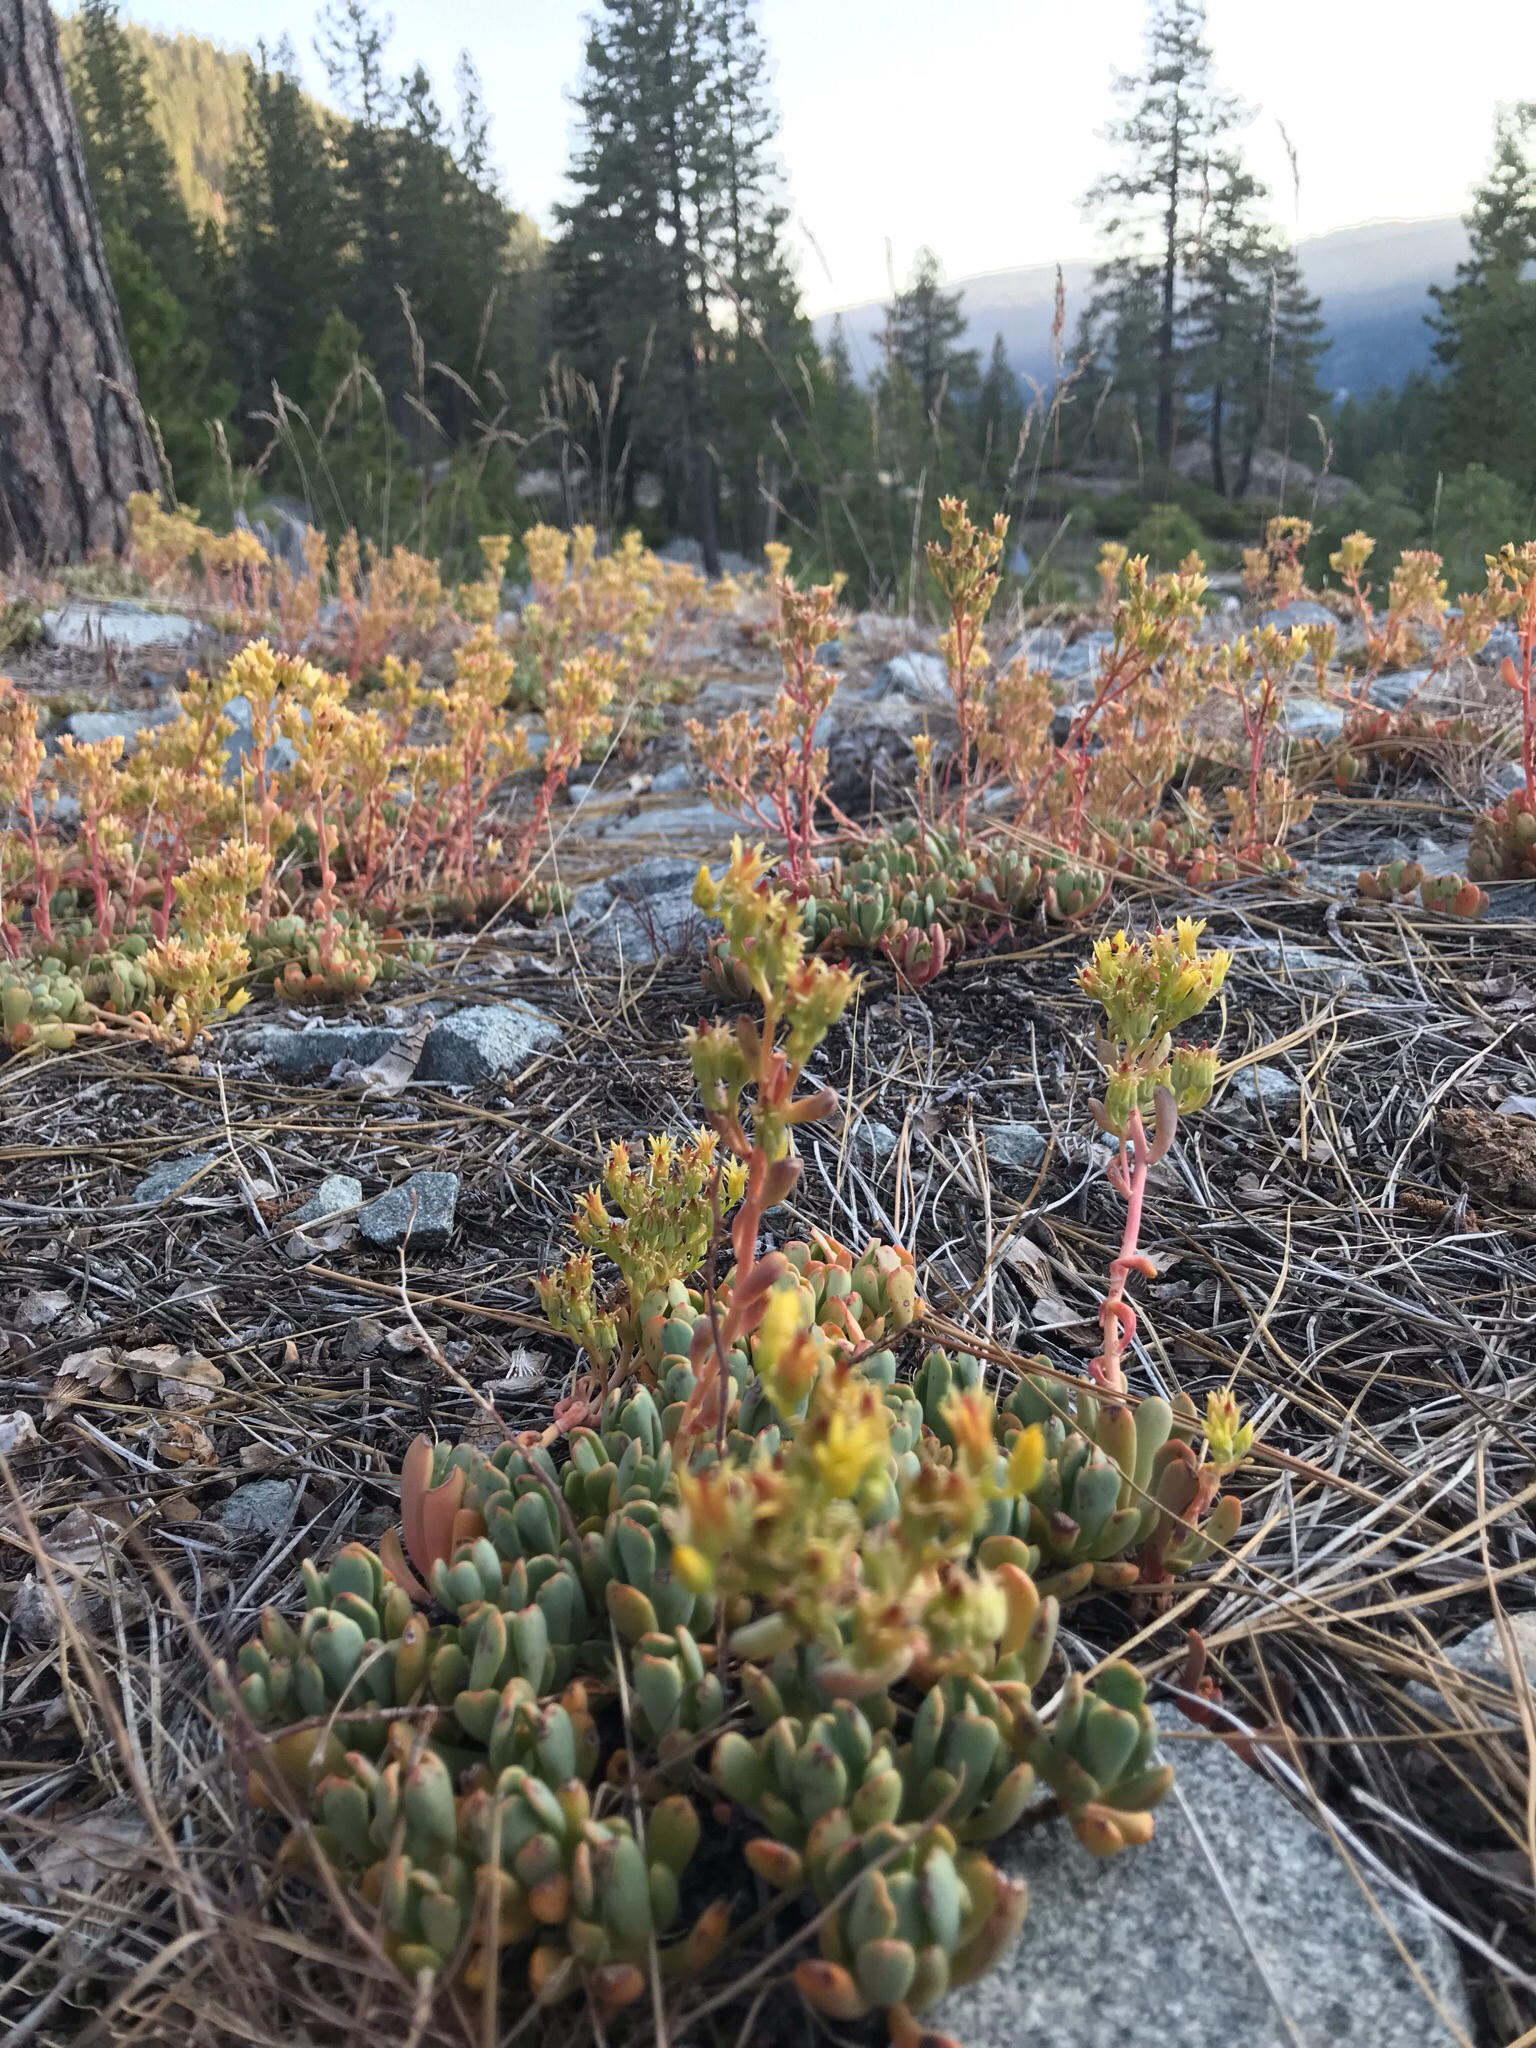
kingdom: Plantae
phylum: Tracheophyta
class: Magnoliopsida
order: Saxifragales
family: Crassulaceae
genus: Sedum
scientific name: Sedum obtusatum
